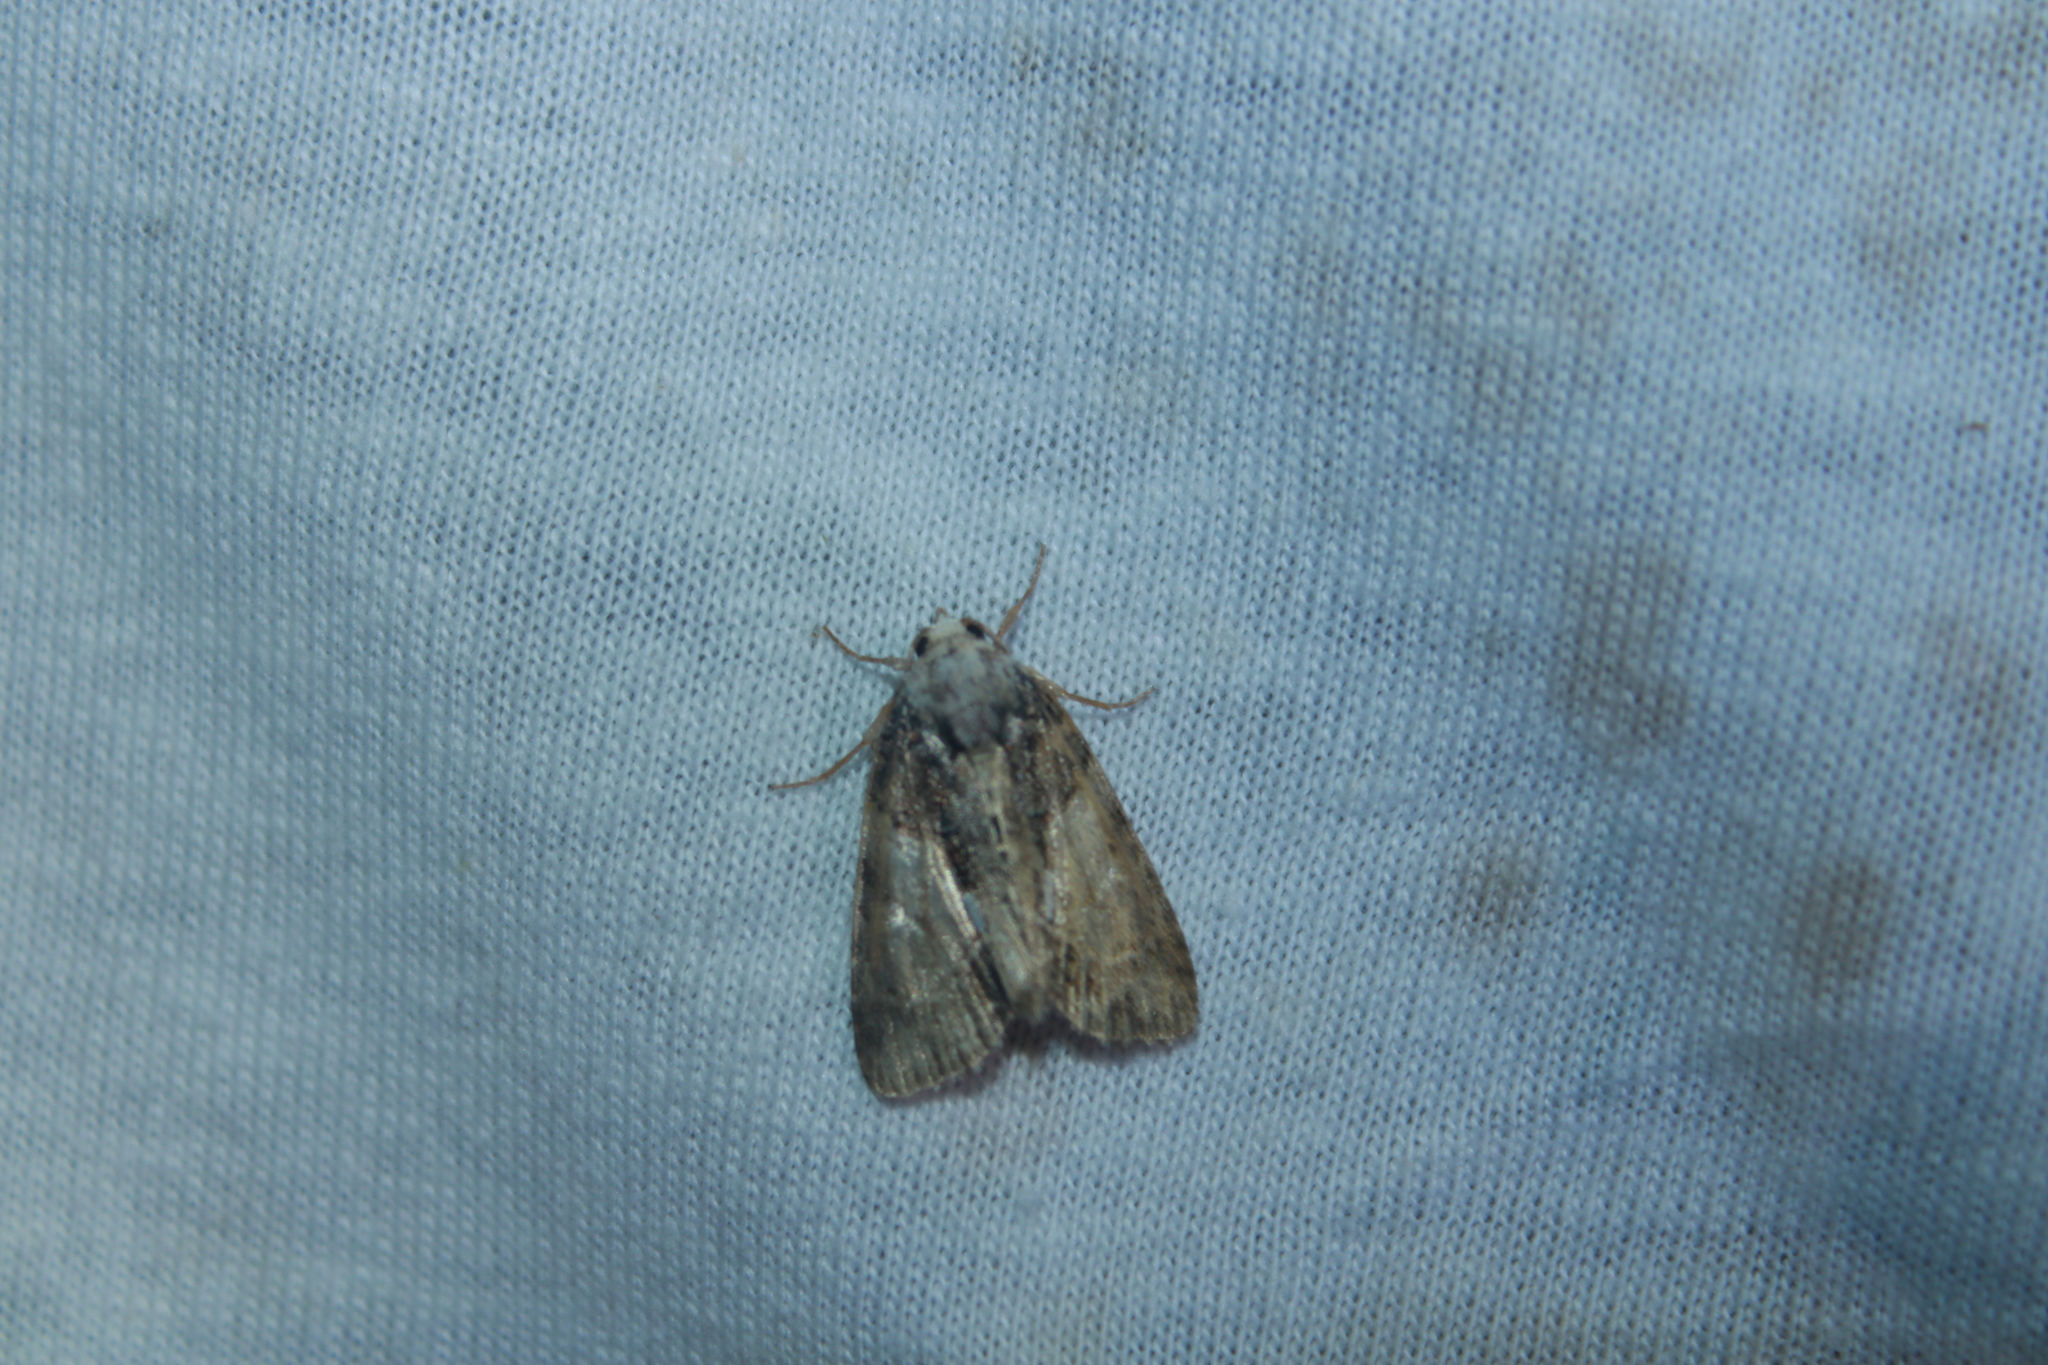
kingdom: Animalia
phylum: Arthropoda
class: Insecta
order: Lepidoptera
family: Noctuidae
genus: Chytonix
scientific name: Chytonix palliatricula
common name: Cloaked marvel
